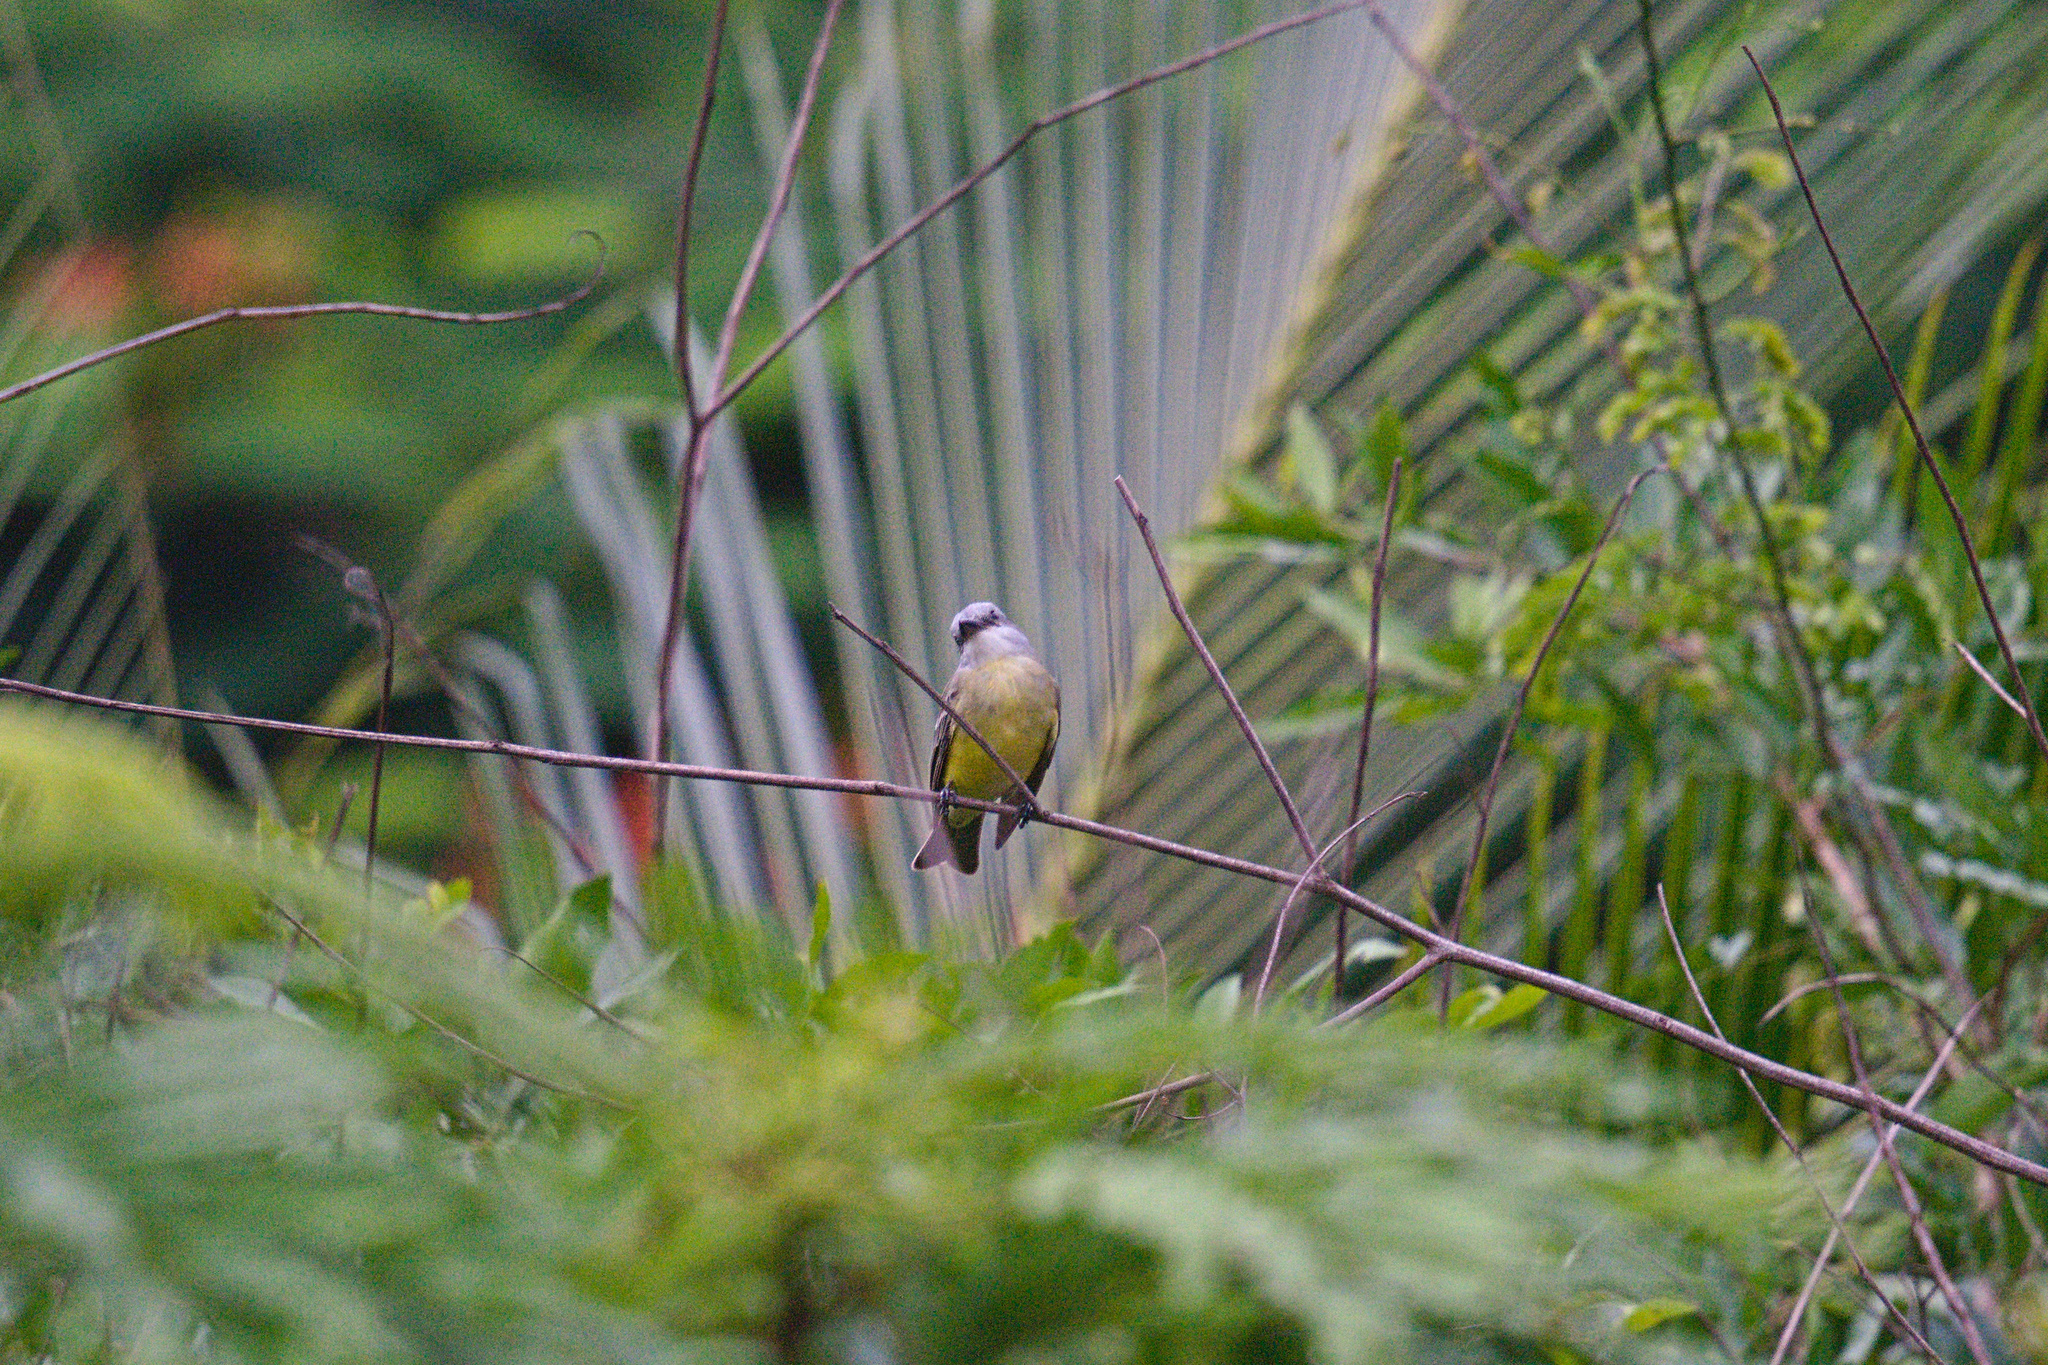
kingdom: Animalia
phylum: Chordata
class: Aves
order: Passeriformes
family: Tyrannidae
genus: Tyrannus
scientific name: Tyrannus melancholicus
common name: Tropical kingbird
